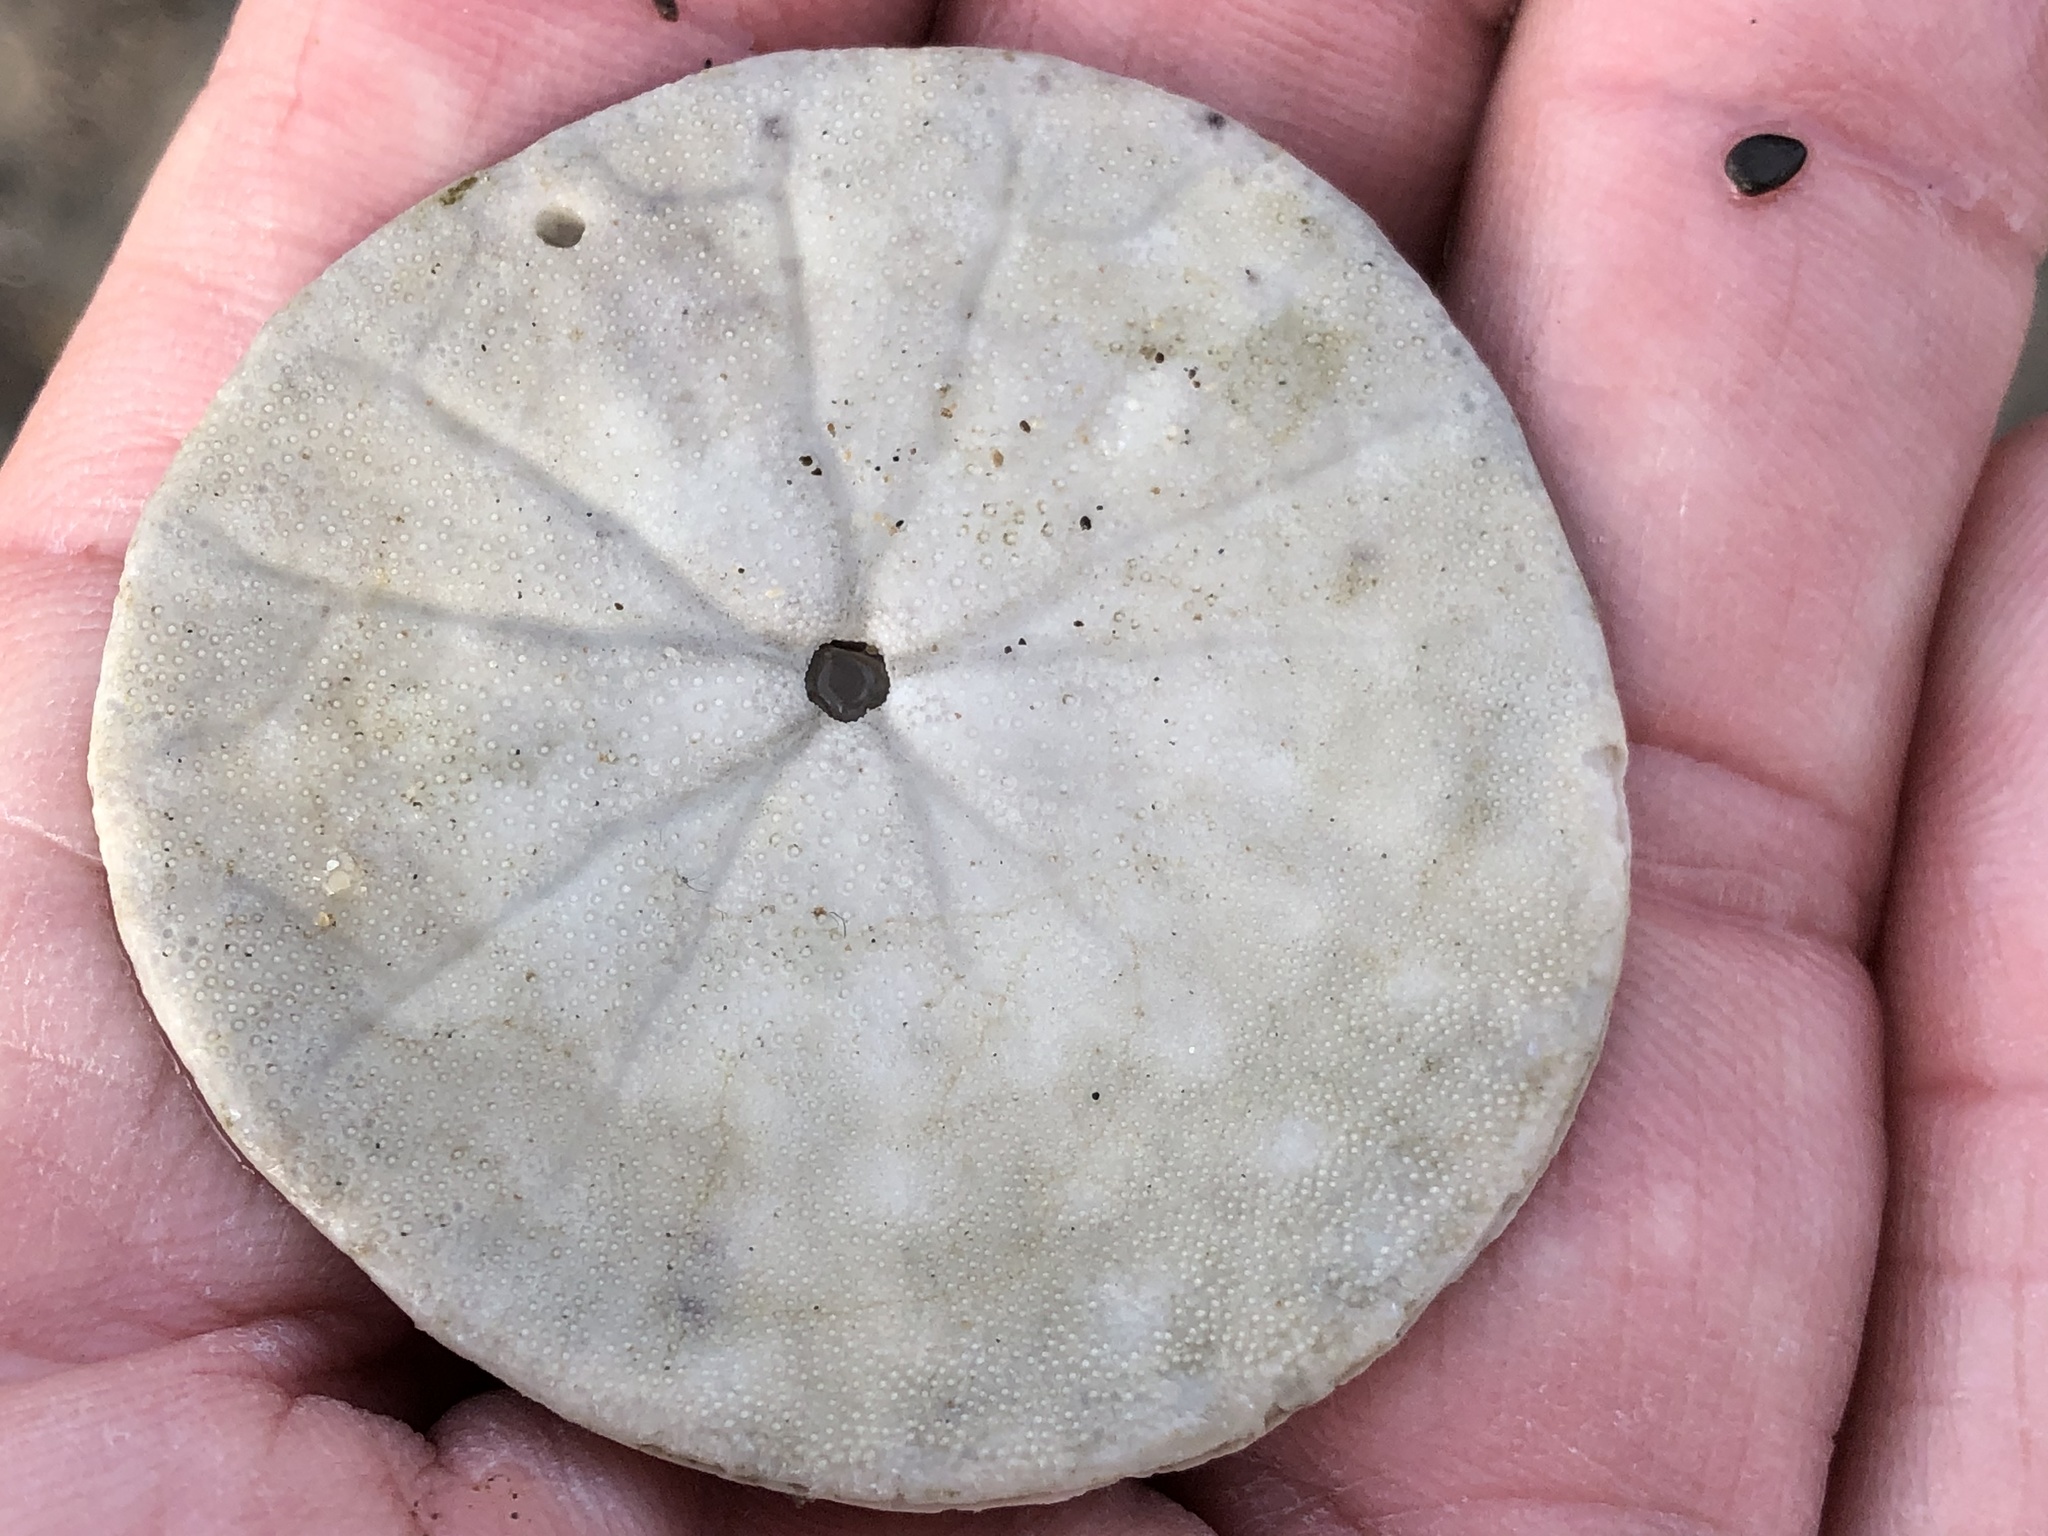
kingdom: Animalia
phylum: Echinodermata
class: Echinoidea
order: Echinolampadacea
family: Dendrasteridae
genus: Dendraster
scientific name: Dendraster excentricus
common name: Eccentric sand dollar sea urchin
